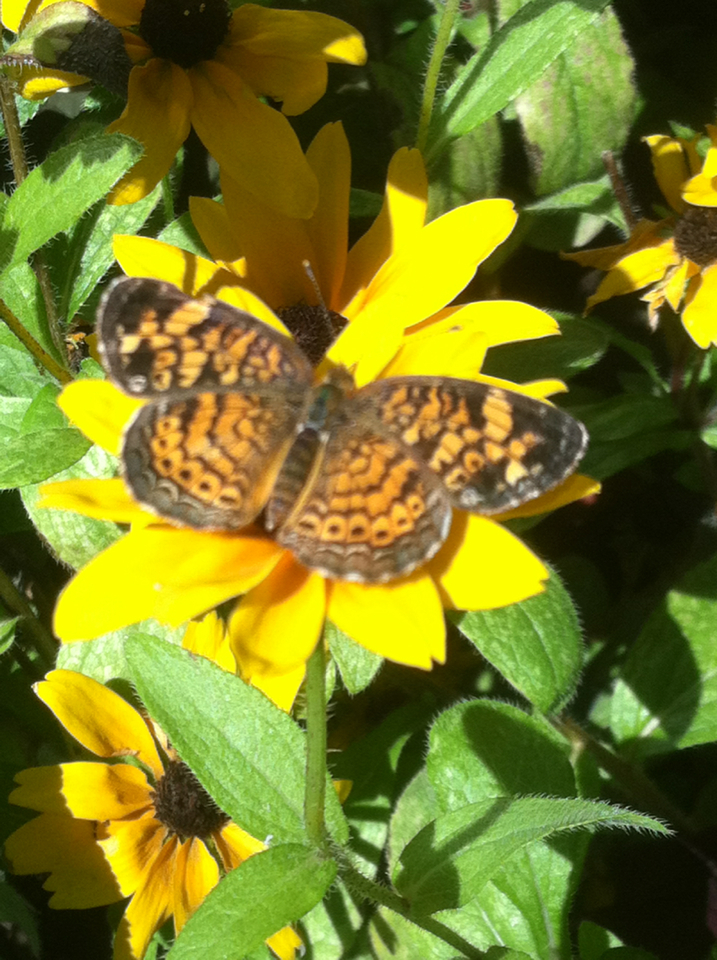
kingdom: Animalia
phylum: Arthropoda
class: Insecta
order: Lepidoptera
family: Nymphalidae
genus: Phyciodes
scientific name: Phyciodes tharos
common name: Pearl crescent
